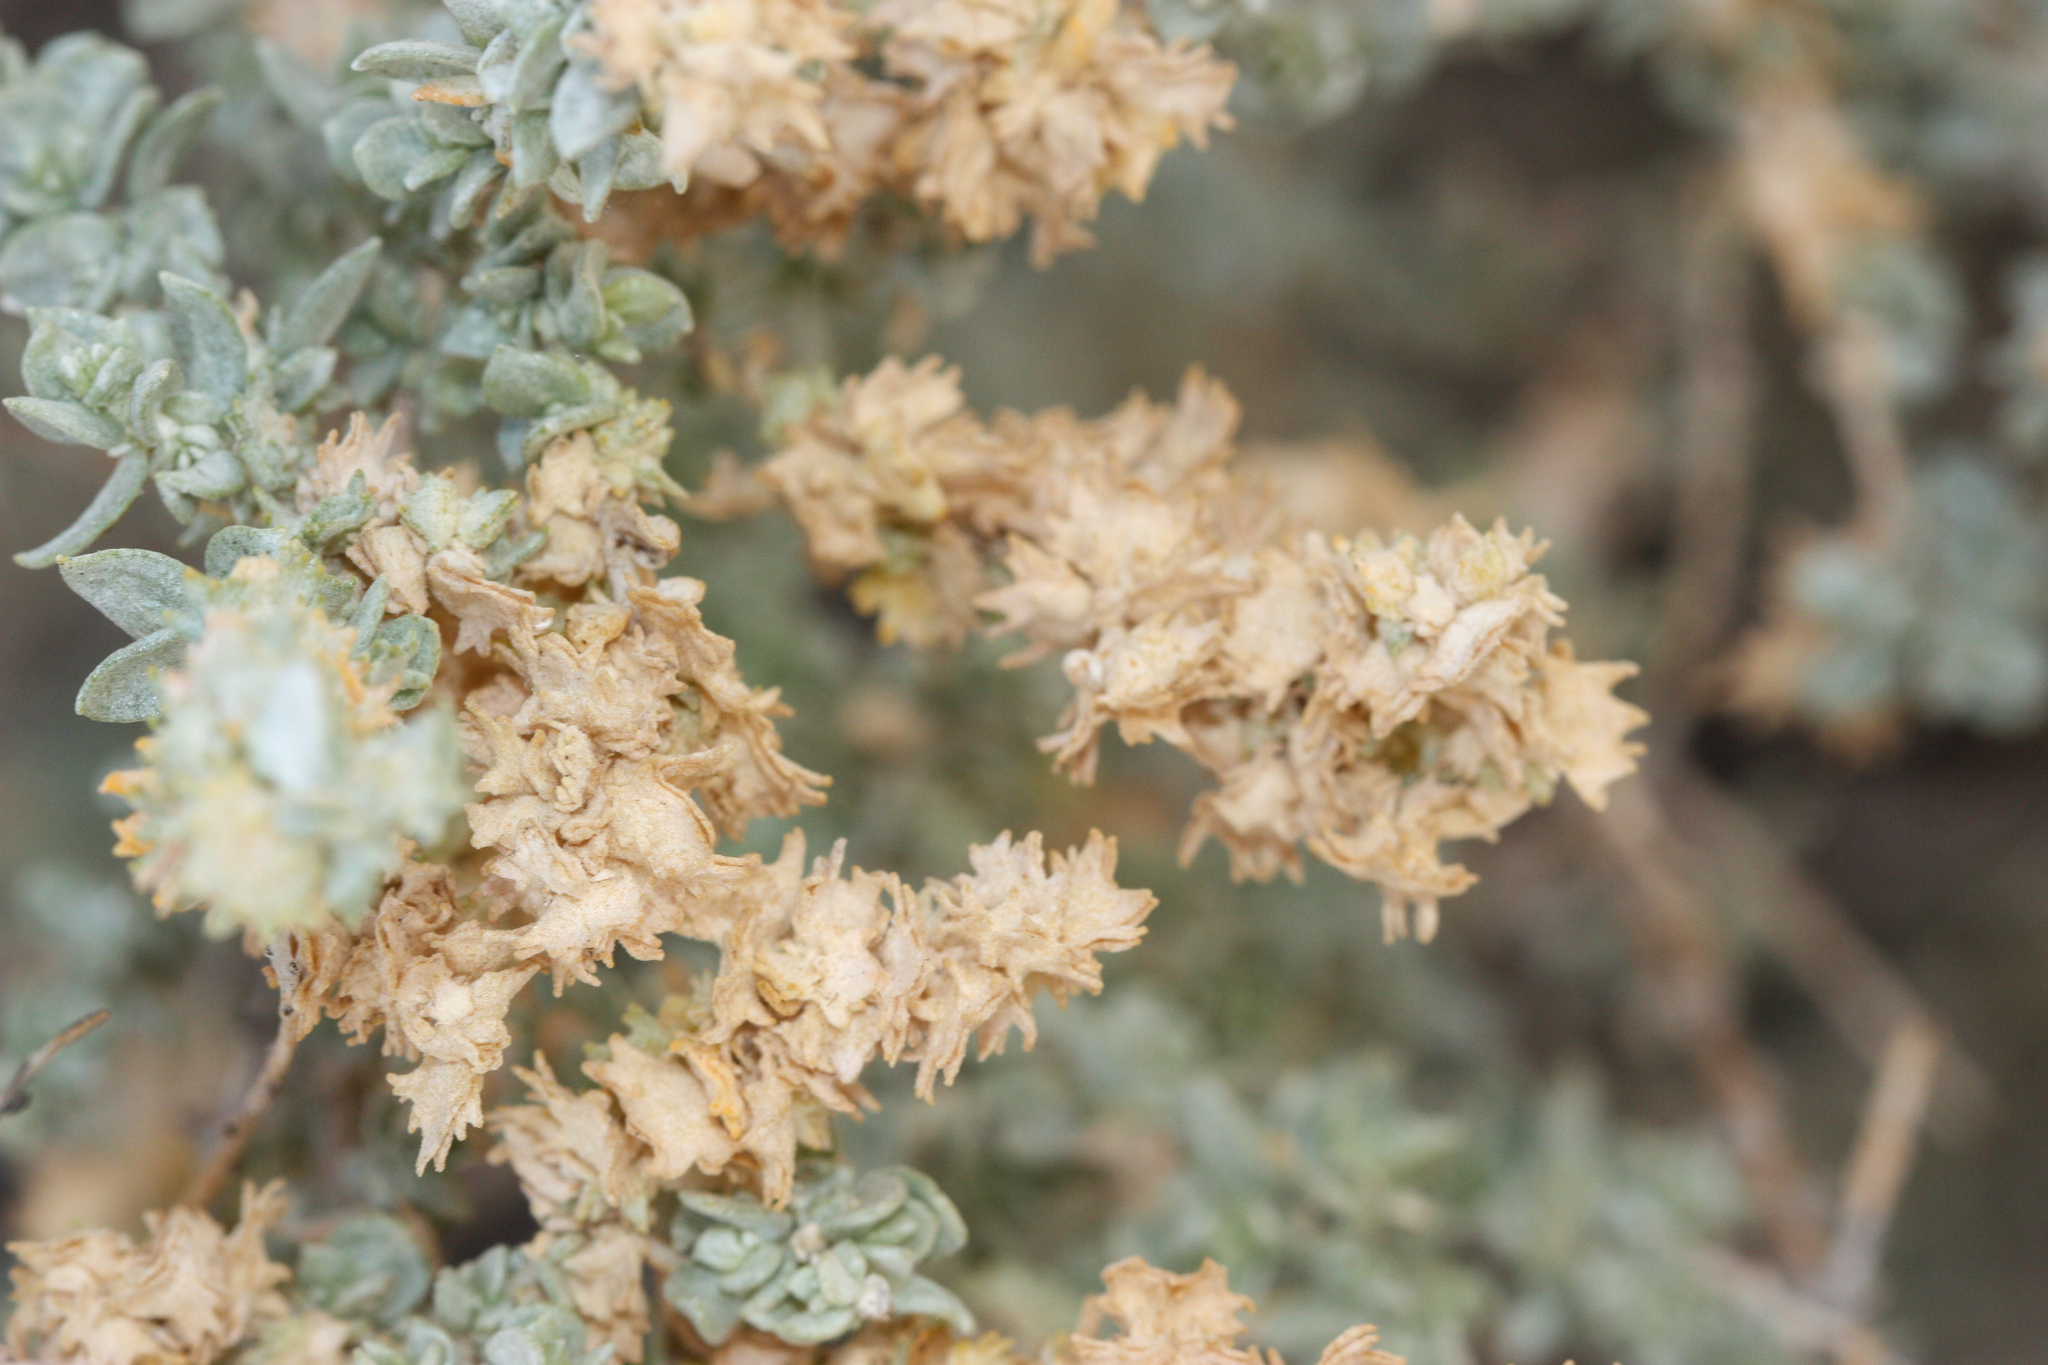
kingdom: Plantae
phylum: Tracheophyta
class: Magnoliopsida
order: Caryophyllales
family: Amaranthaceae
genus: Atriplex
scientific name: Atriplex polycarpa
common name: Desert saltbush
